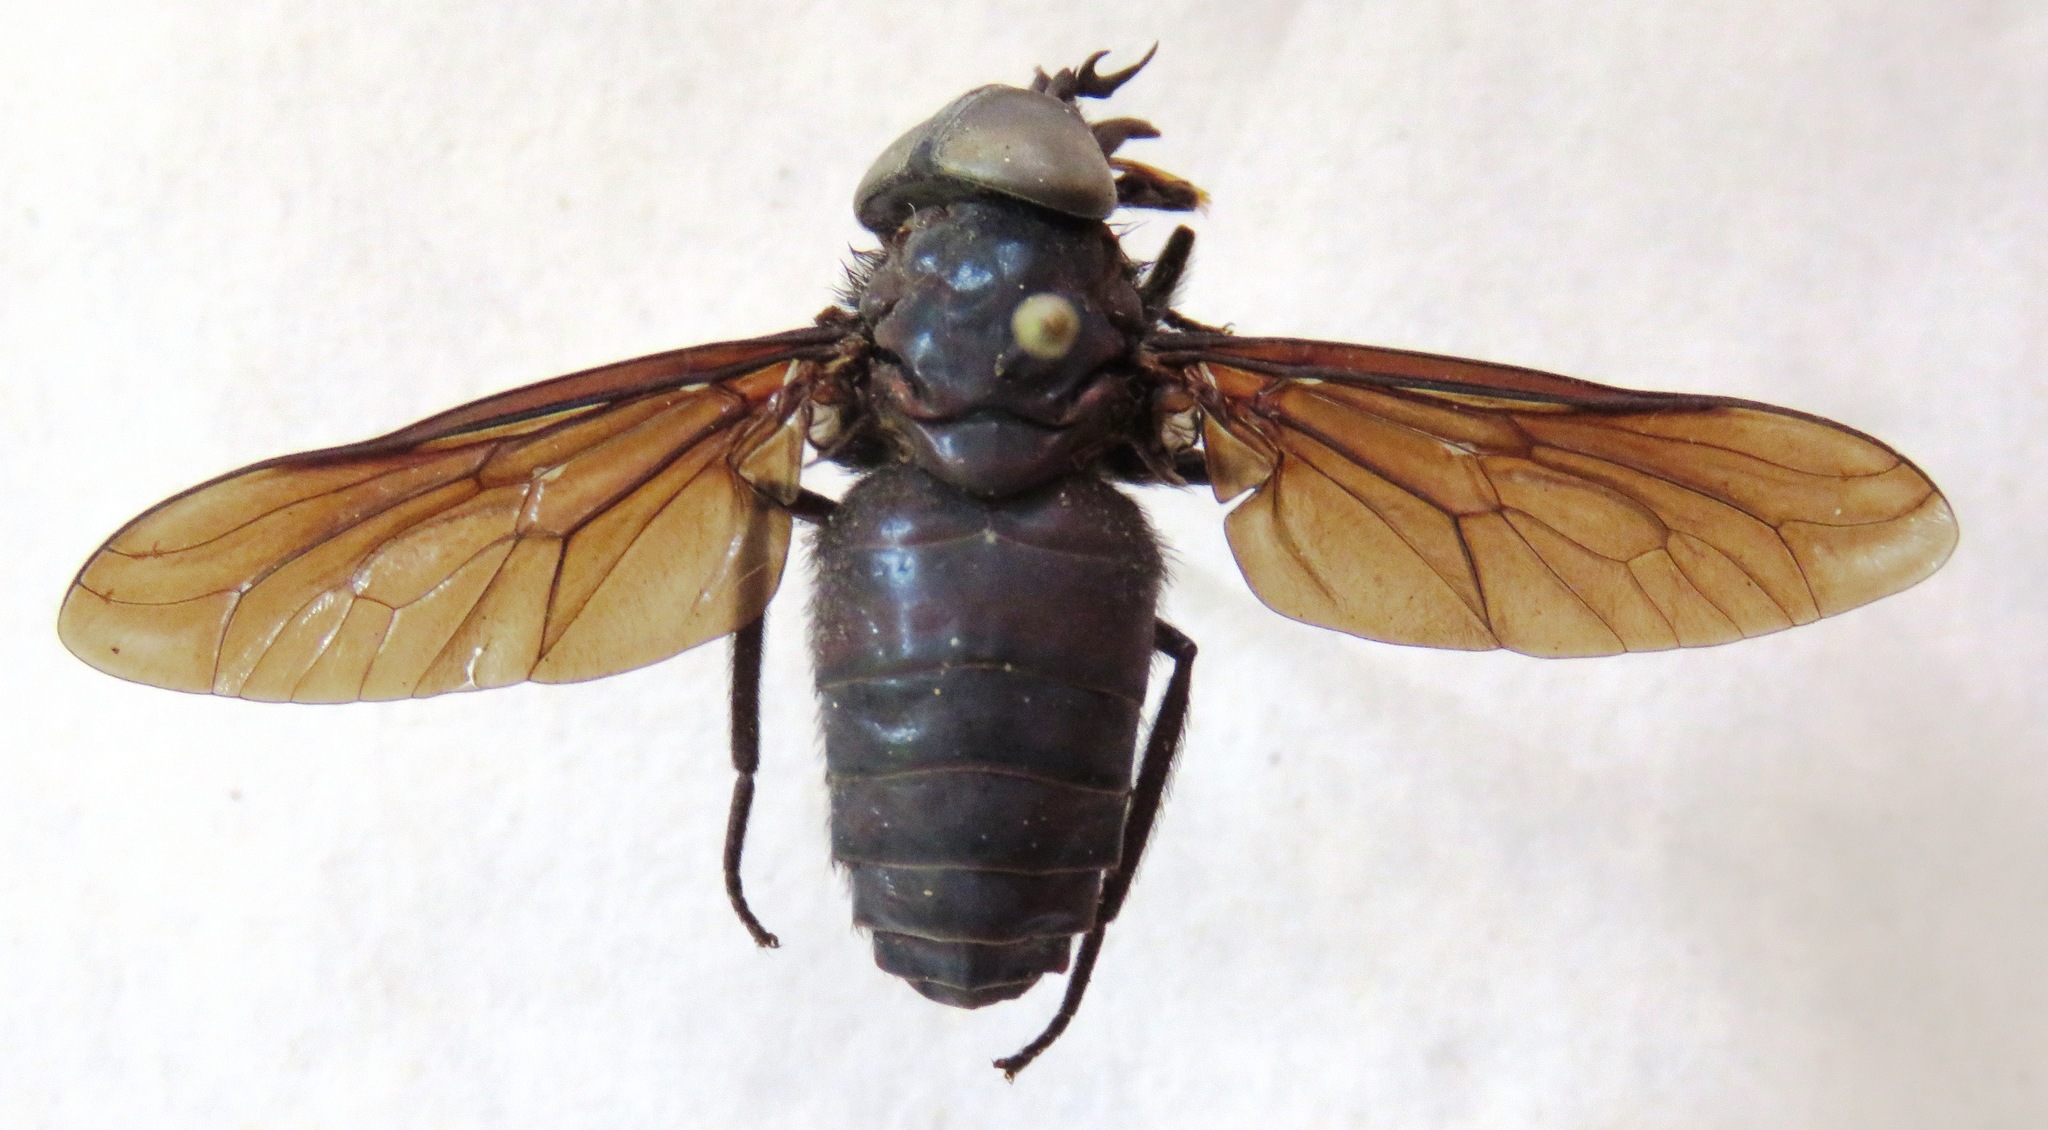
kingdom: Animalia
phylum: Arthropoda
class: Insecta
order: Diptera
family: Tabanidae
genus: Tabanus
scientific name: Tabanus erebus
